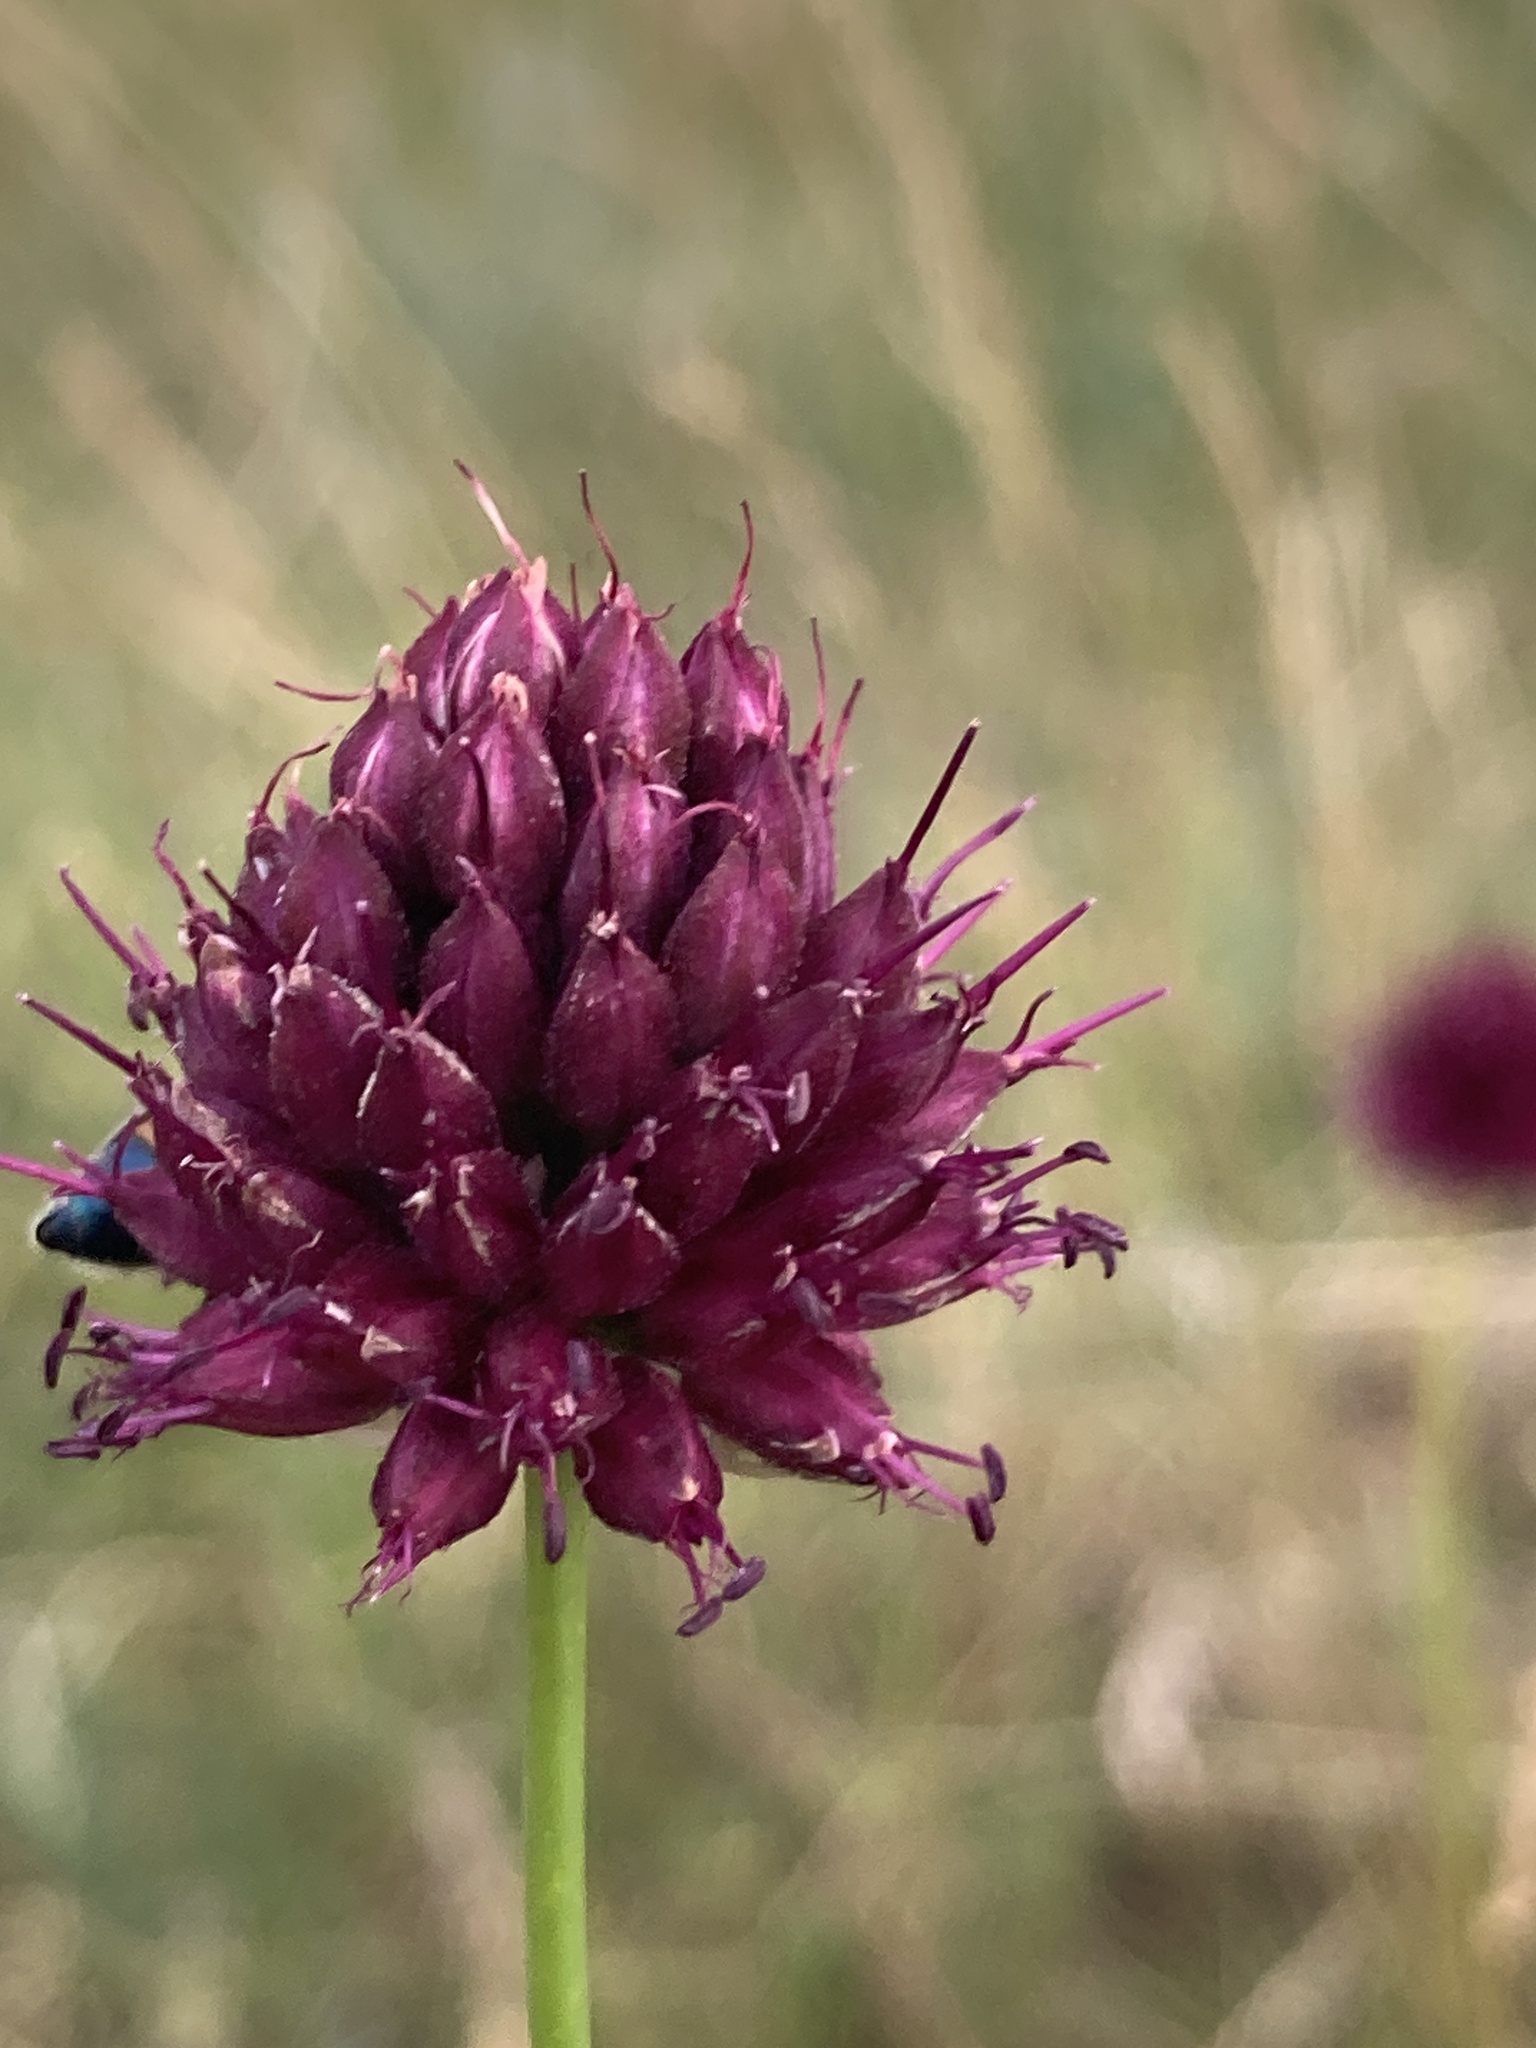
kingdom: Plantae
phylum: Tracheophyta
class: Liliopsida
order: Asparagales
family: Amaryllidaceae
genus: Allium
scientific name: Allium sphaerocephalon
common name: Round-headed leek
